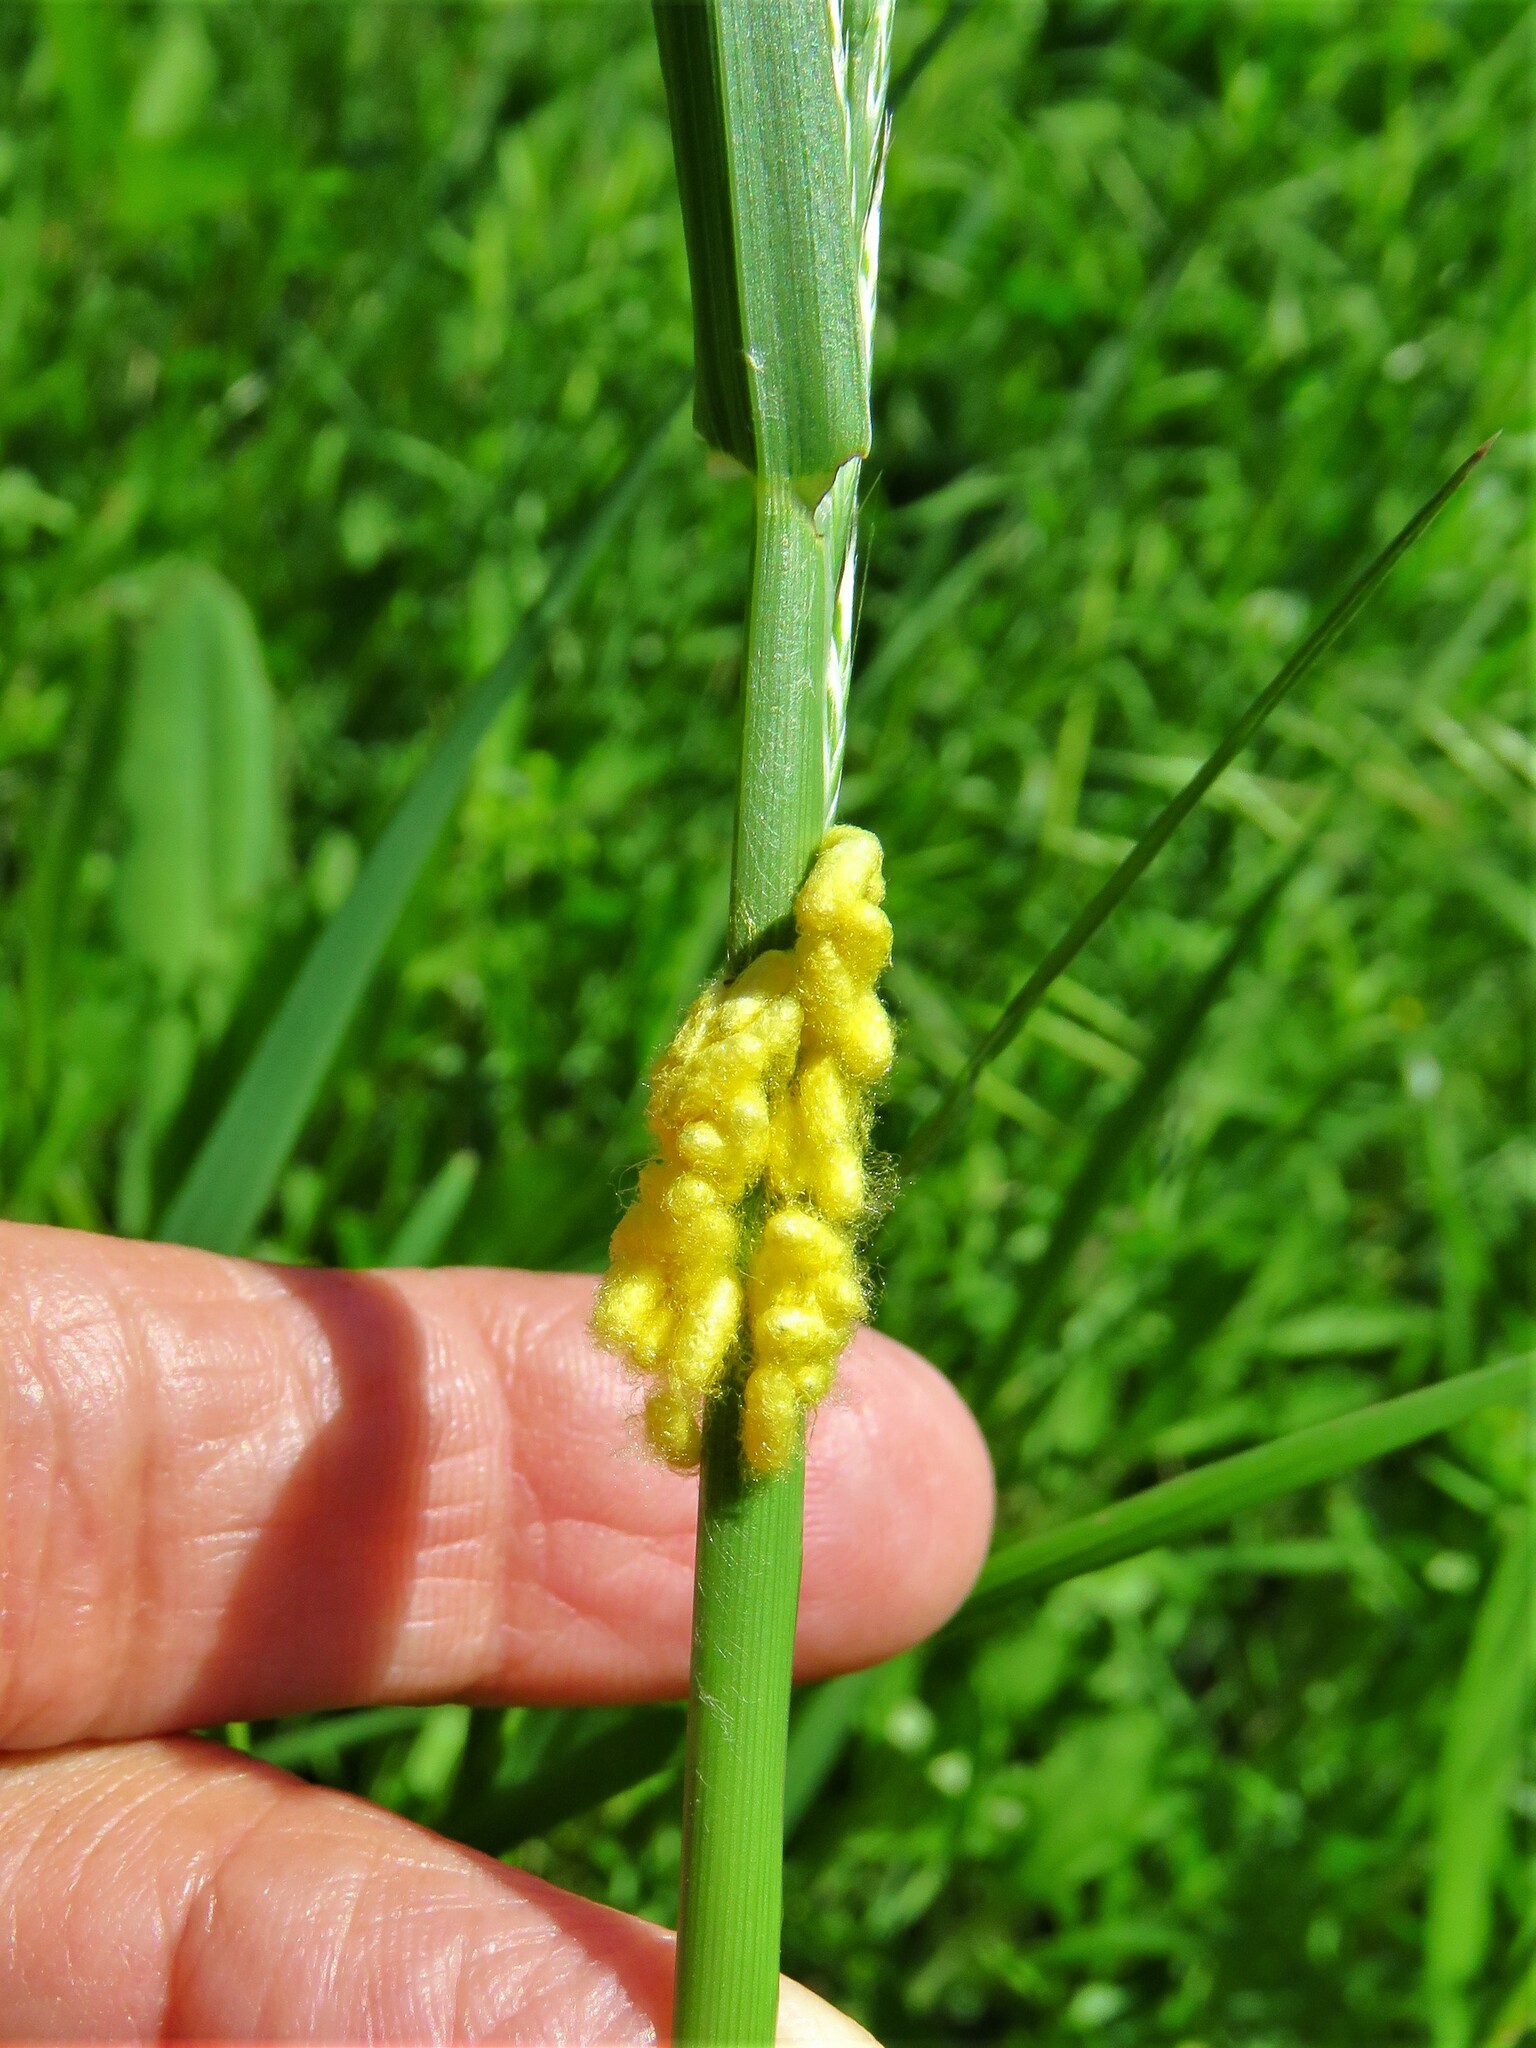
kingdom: Animalia
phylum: Arthropoda
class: Insecta
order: Hymenoptera
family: Braconidae
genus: Cotesia
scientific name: Cotesia glomerata
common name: Parasitoid wasp
